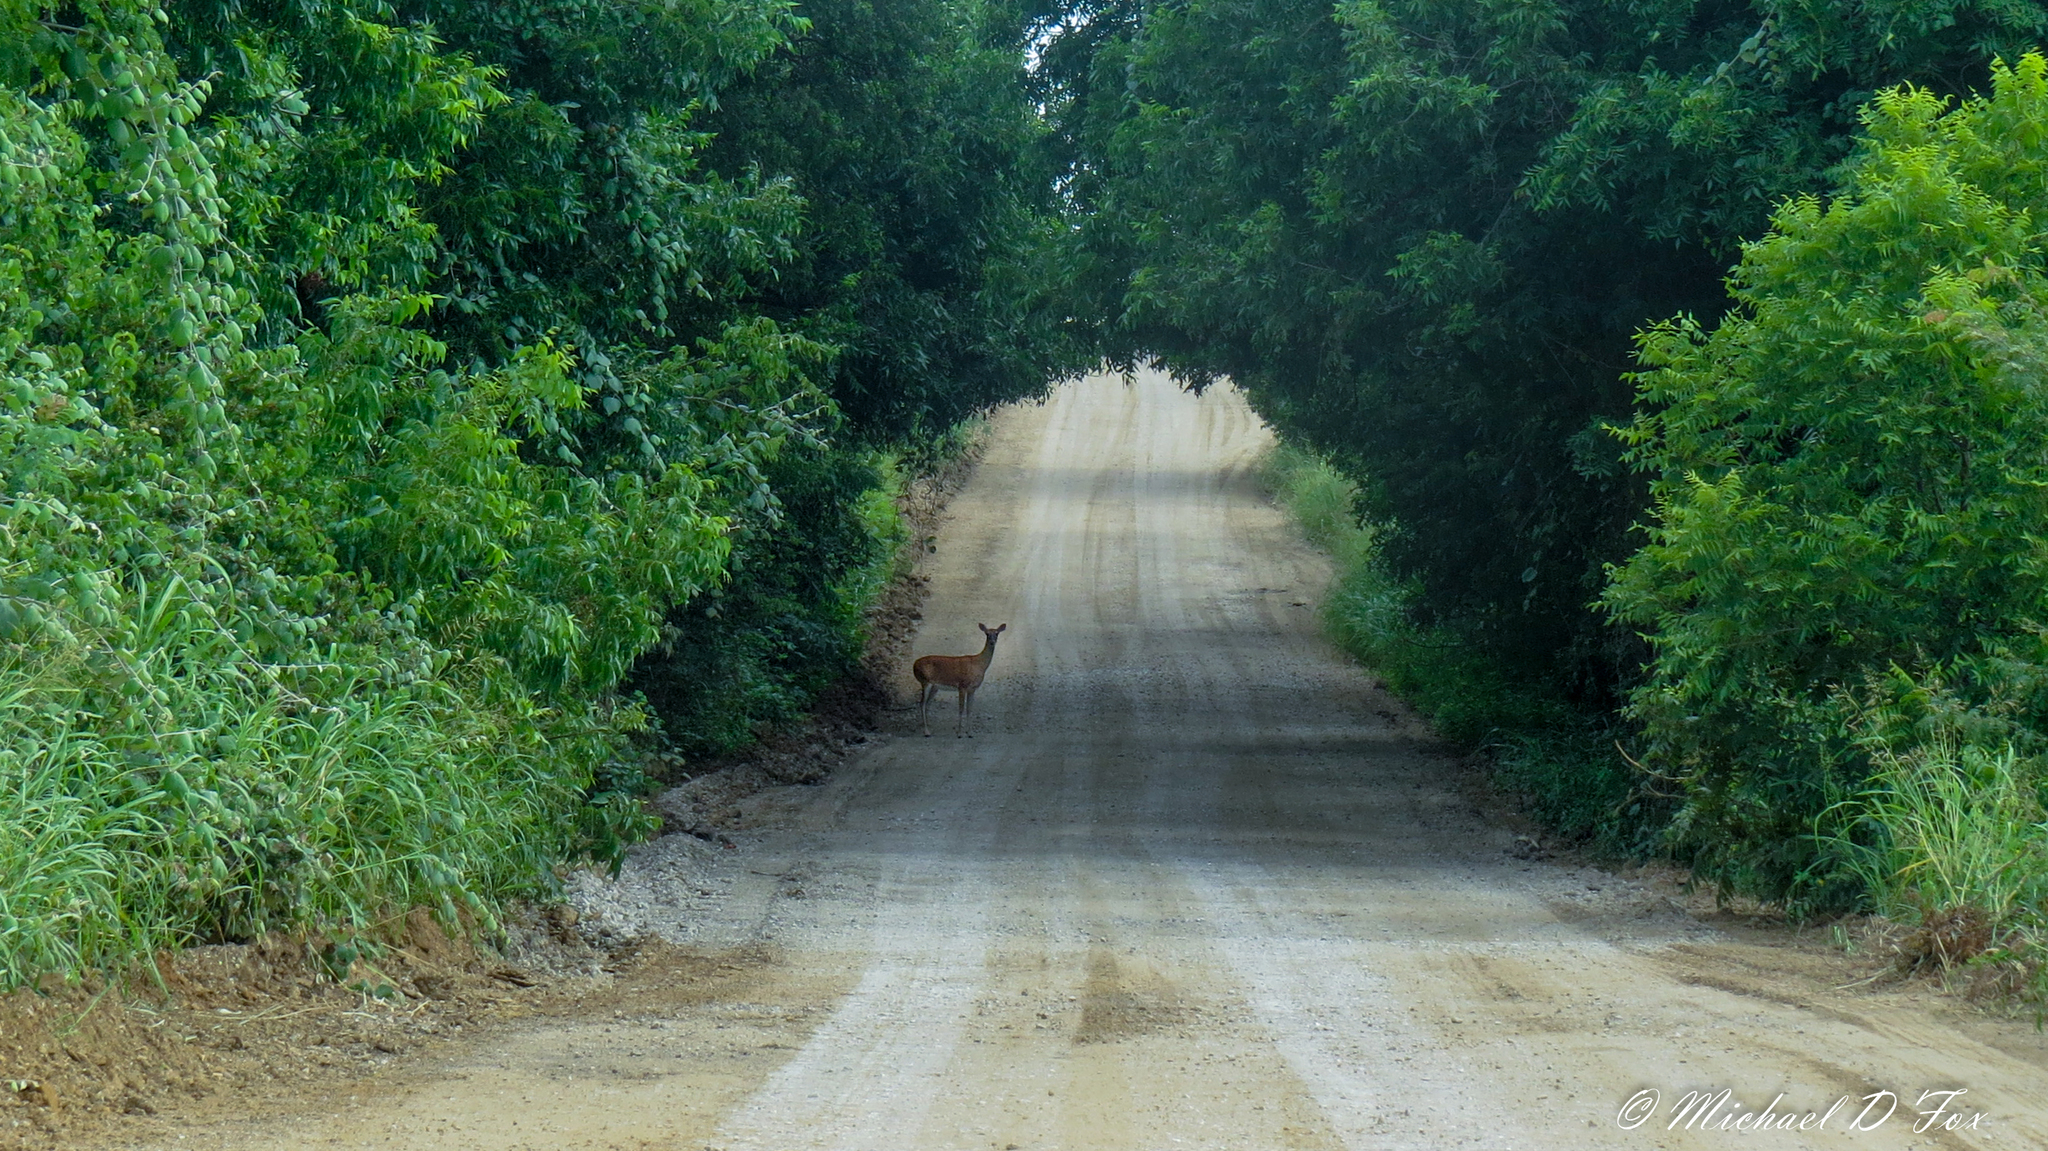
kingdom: Animalia
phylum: Chordata
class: Mammalia
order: Artiodactyla
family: Cervidae
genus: Odocoileus
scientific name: Odocoileus virginianus
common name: White-tailed deer
